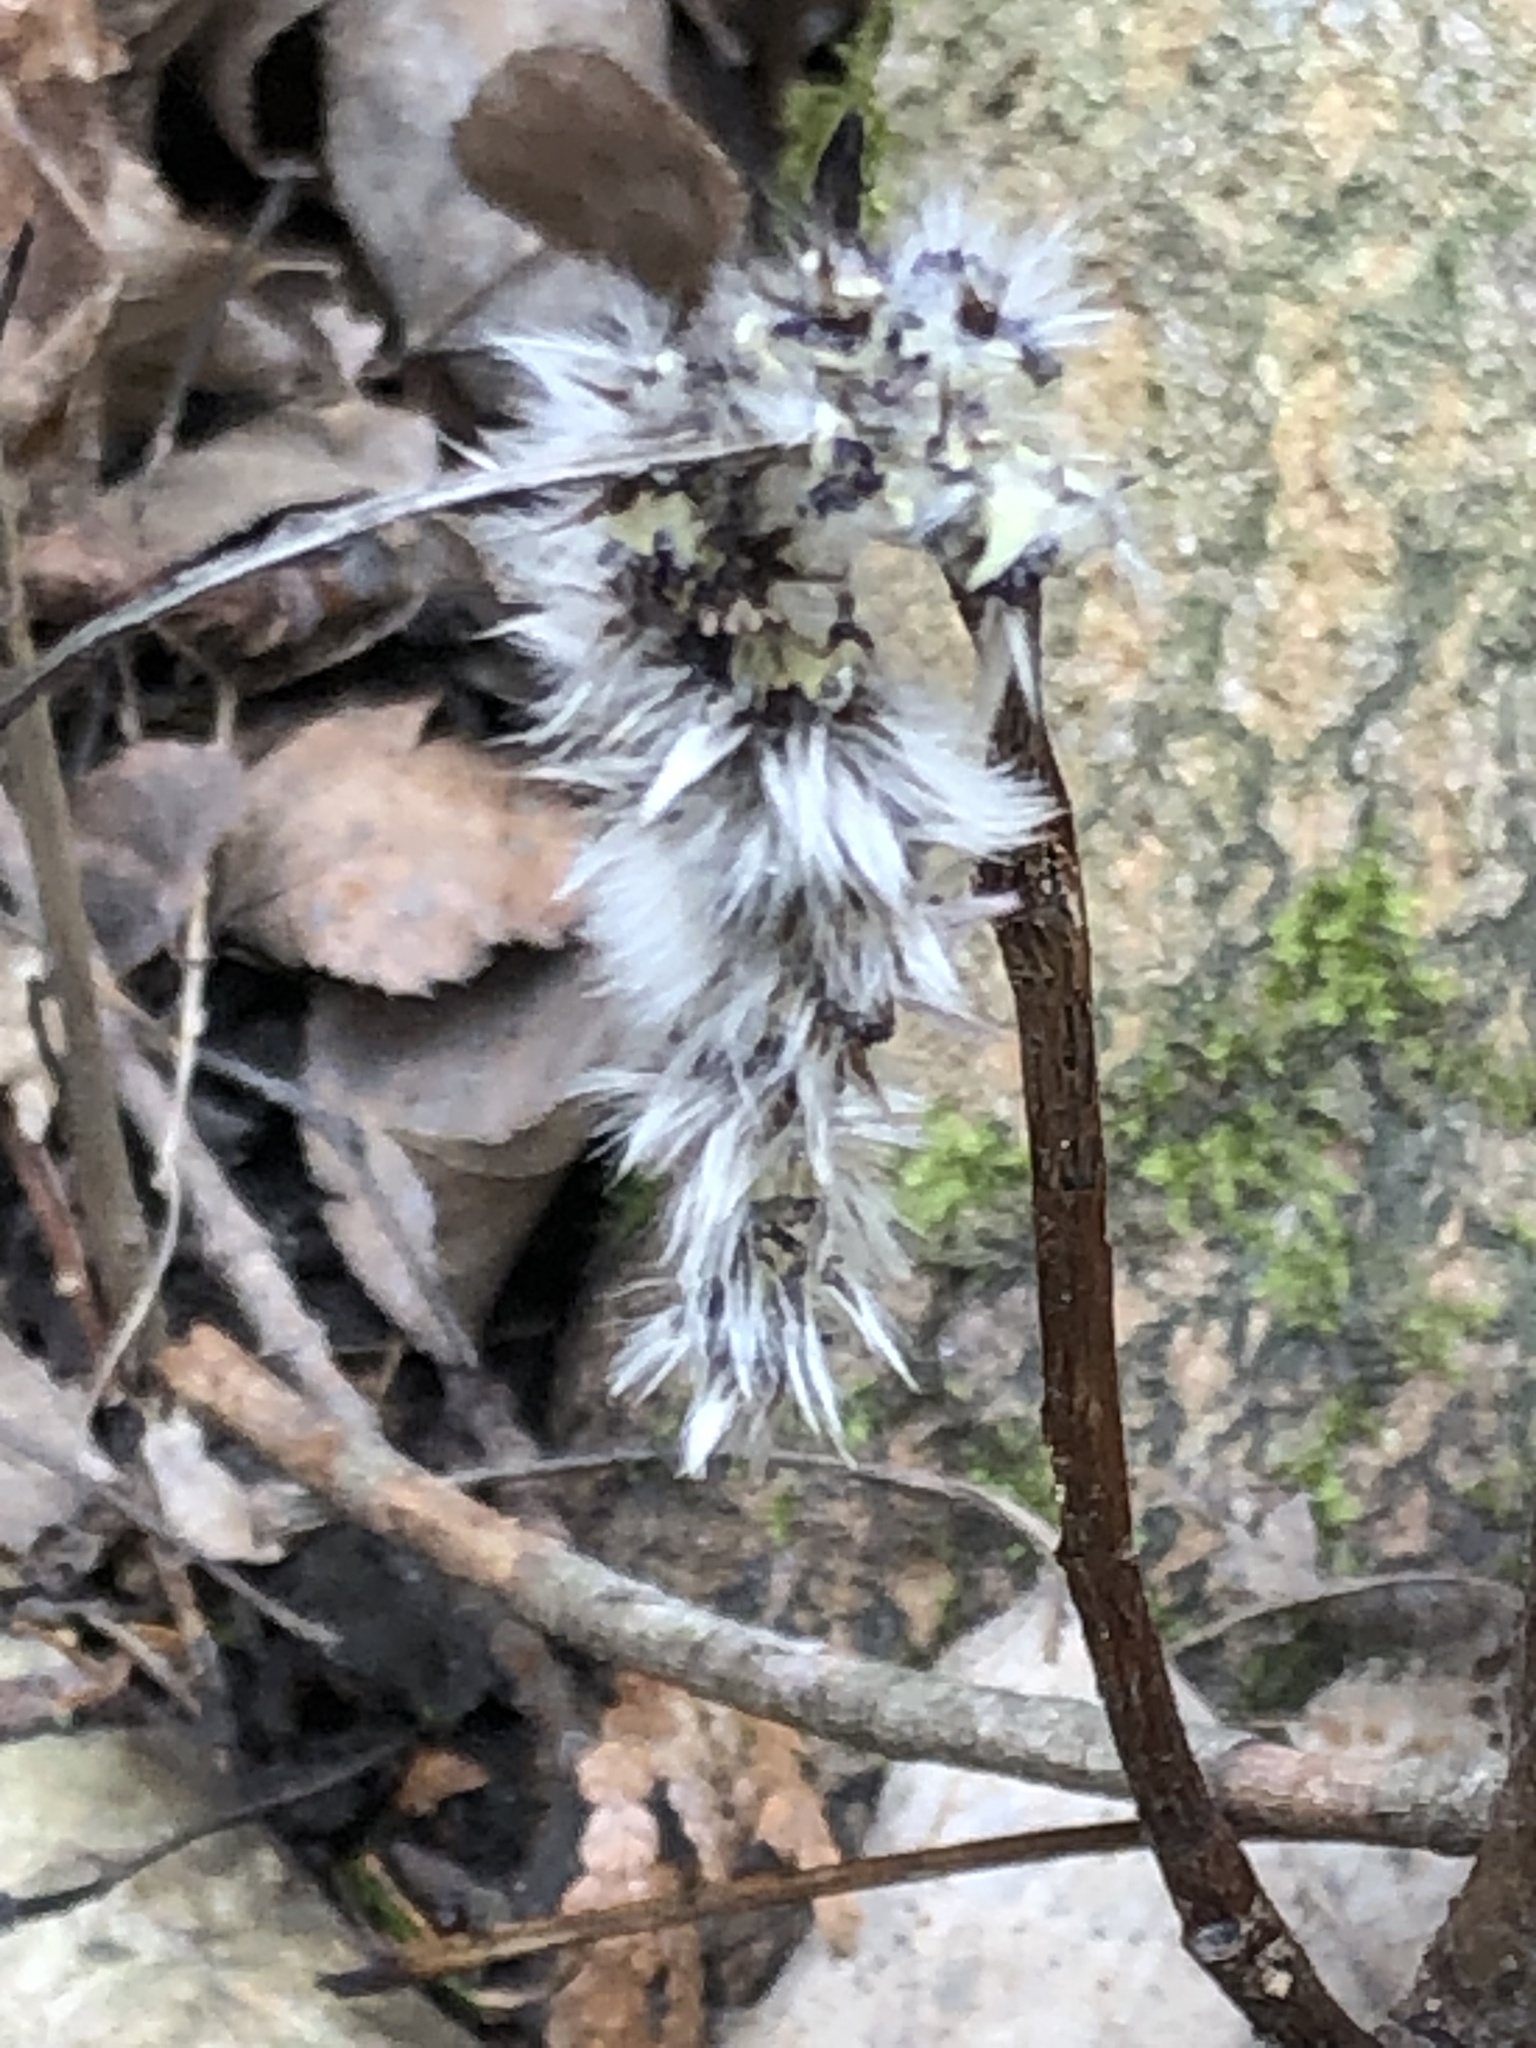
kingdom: Plantae
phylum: Tracheophyta
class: Magnoliopsida
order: Malpighiales
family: Salicaceae
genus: Populus
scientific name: Populus deltoides
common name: Eastern cottonwood
